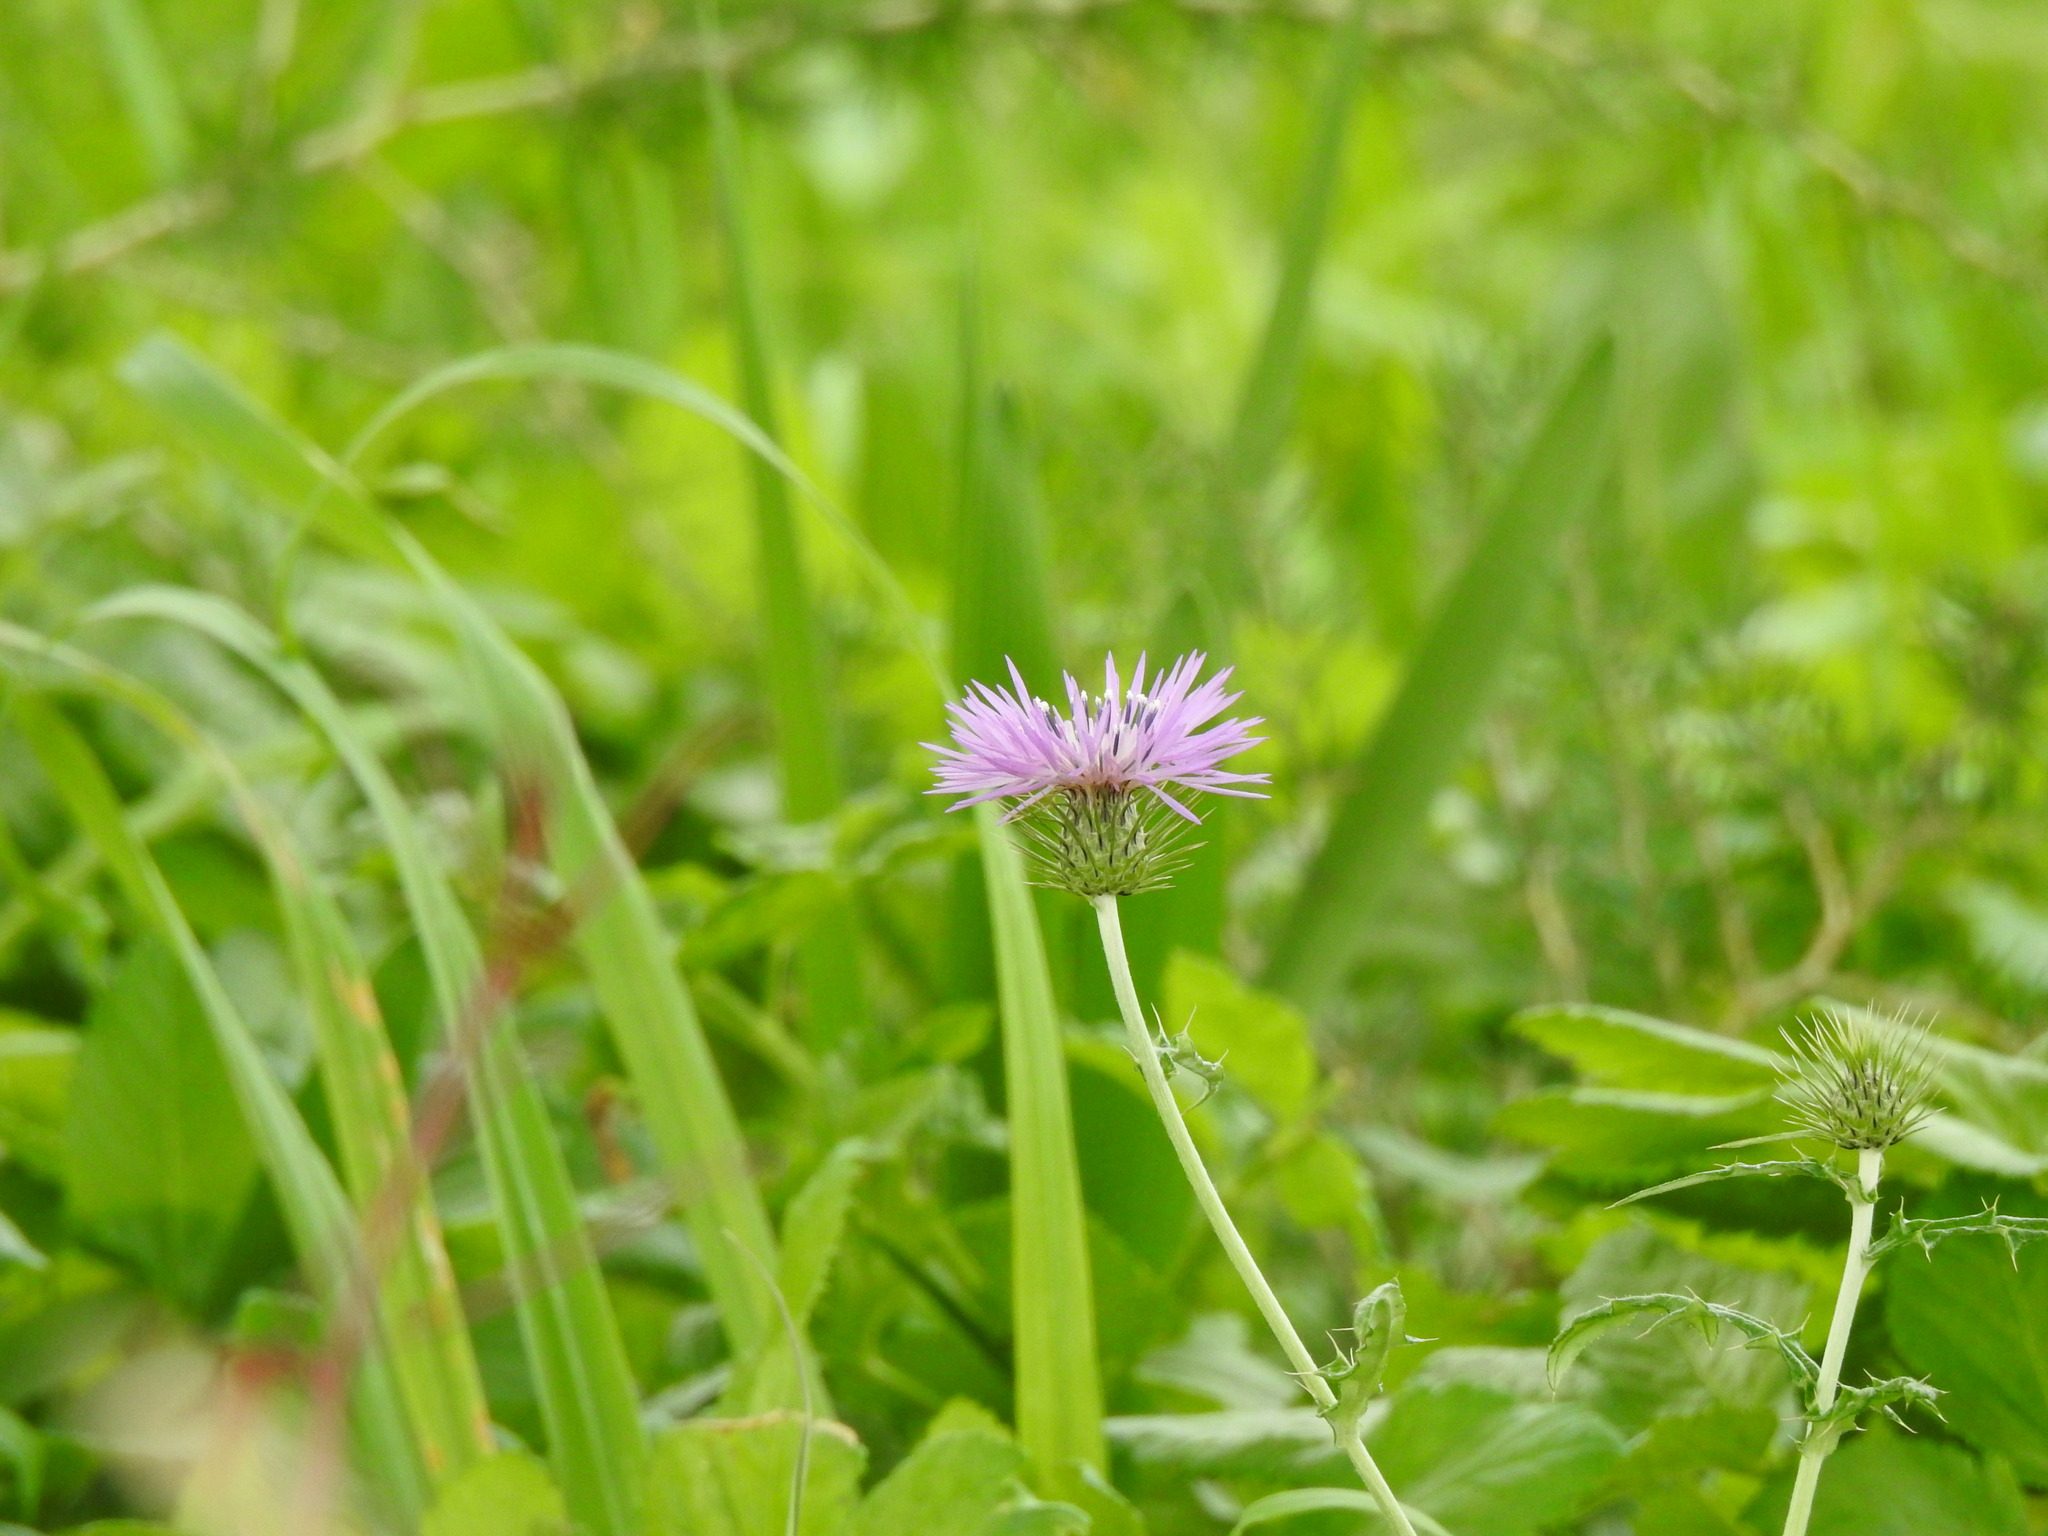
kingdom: Plantae
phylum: Tracheophyta
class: Magnoliopsida
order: Asterales
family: Asteraceae
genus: Galactites
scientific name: Galactites tomentosa
